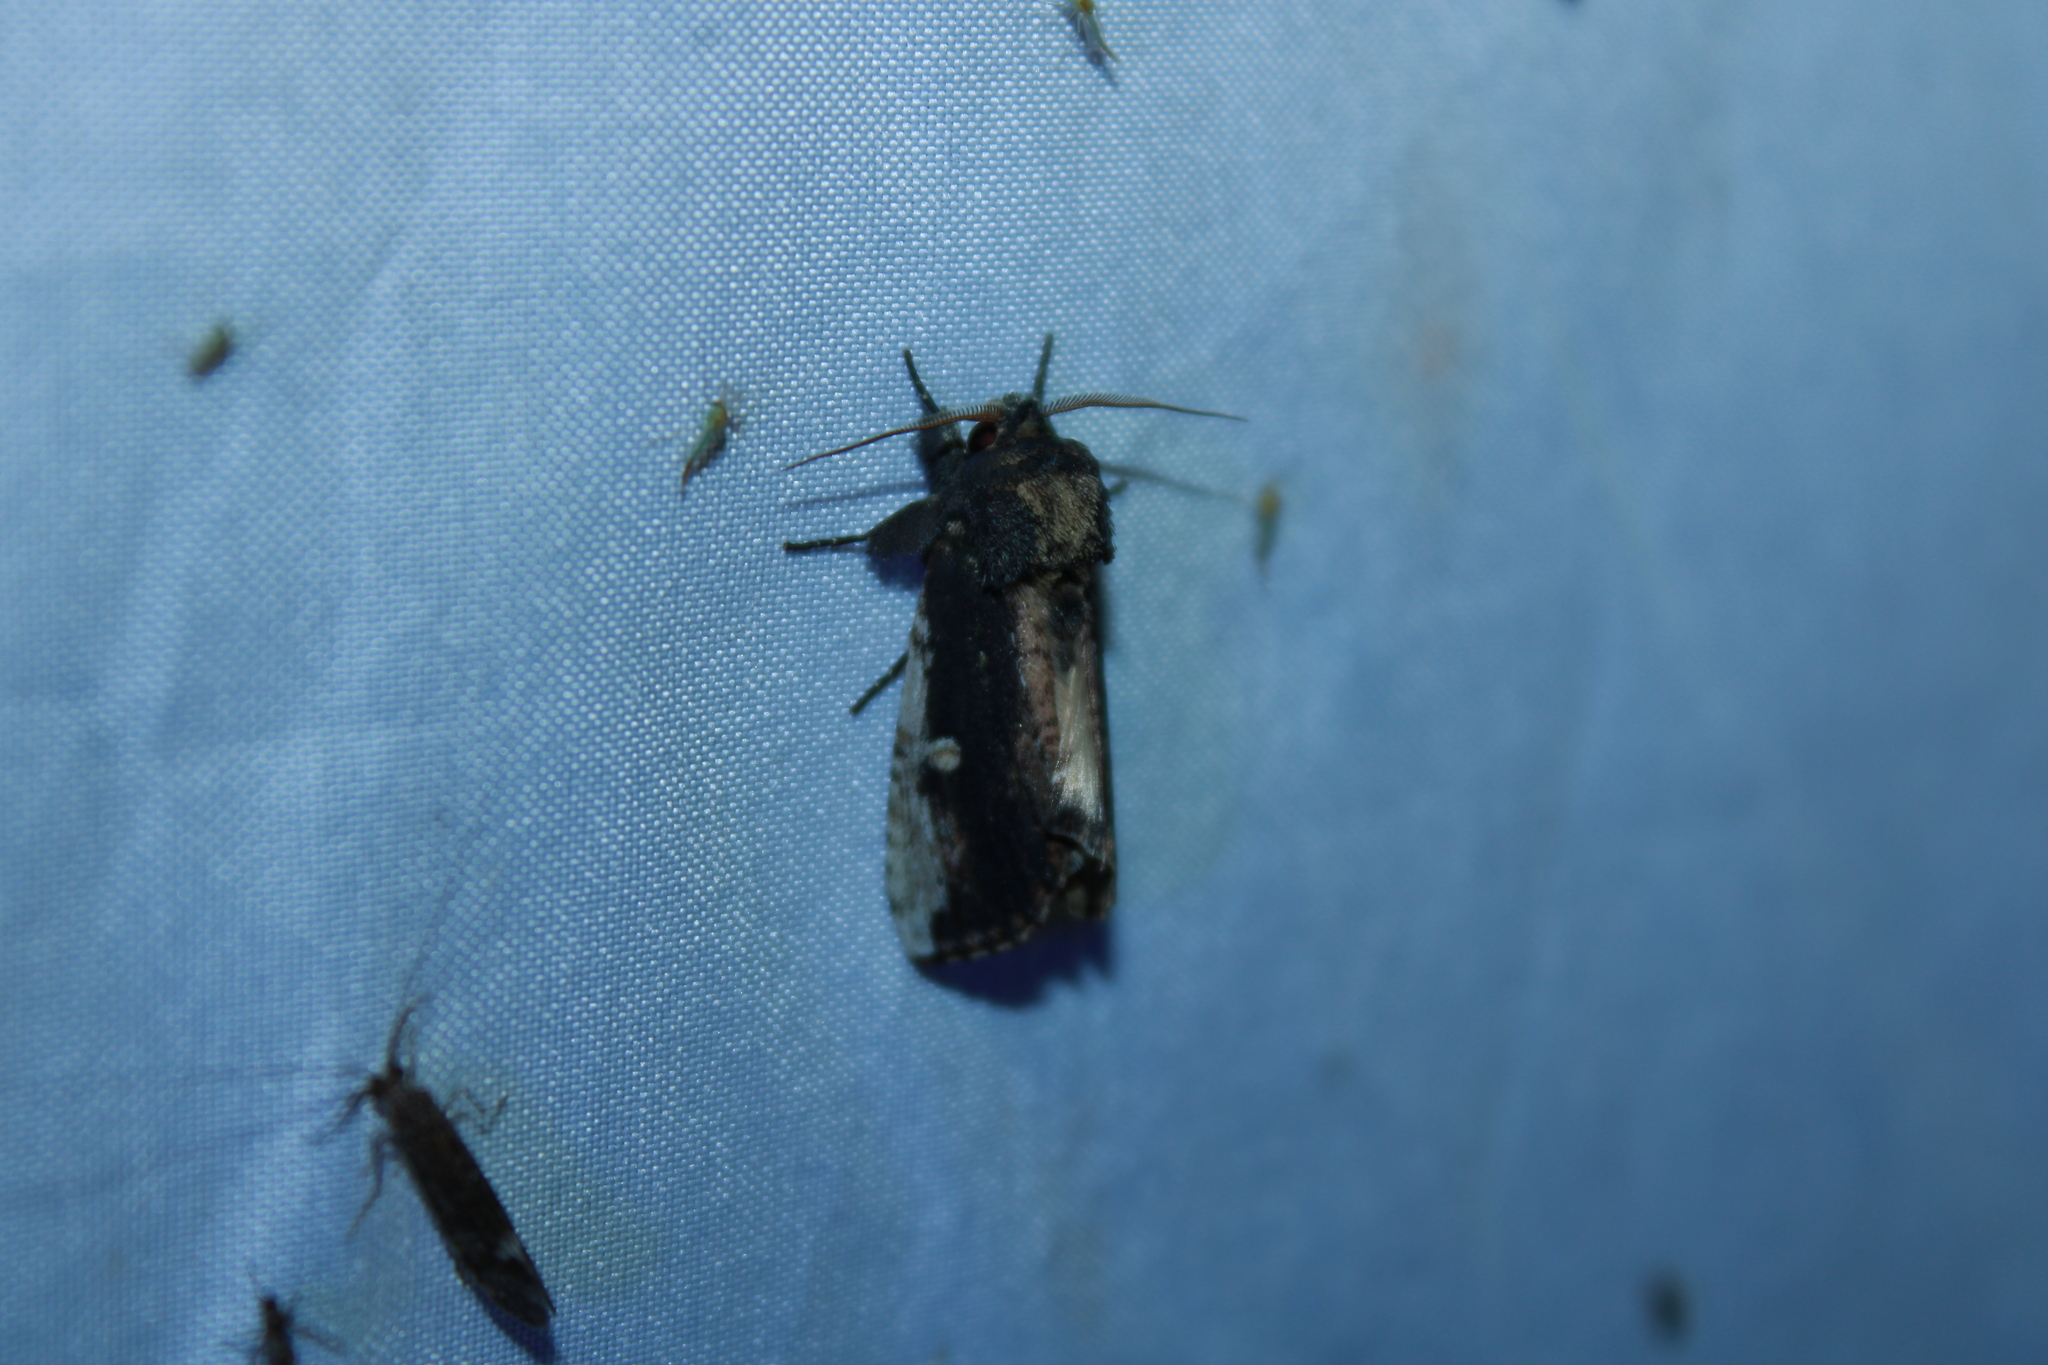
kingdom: Animalia
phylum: Arthropoda
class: Insecta
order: Lepidoptera
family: Notodontidae
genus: Schizura
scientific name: Schizura ipomaeae
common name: Morning-glory prominent
